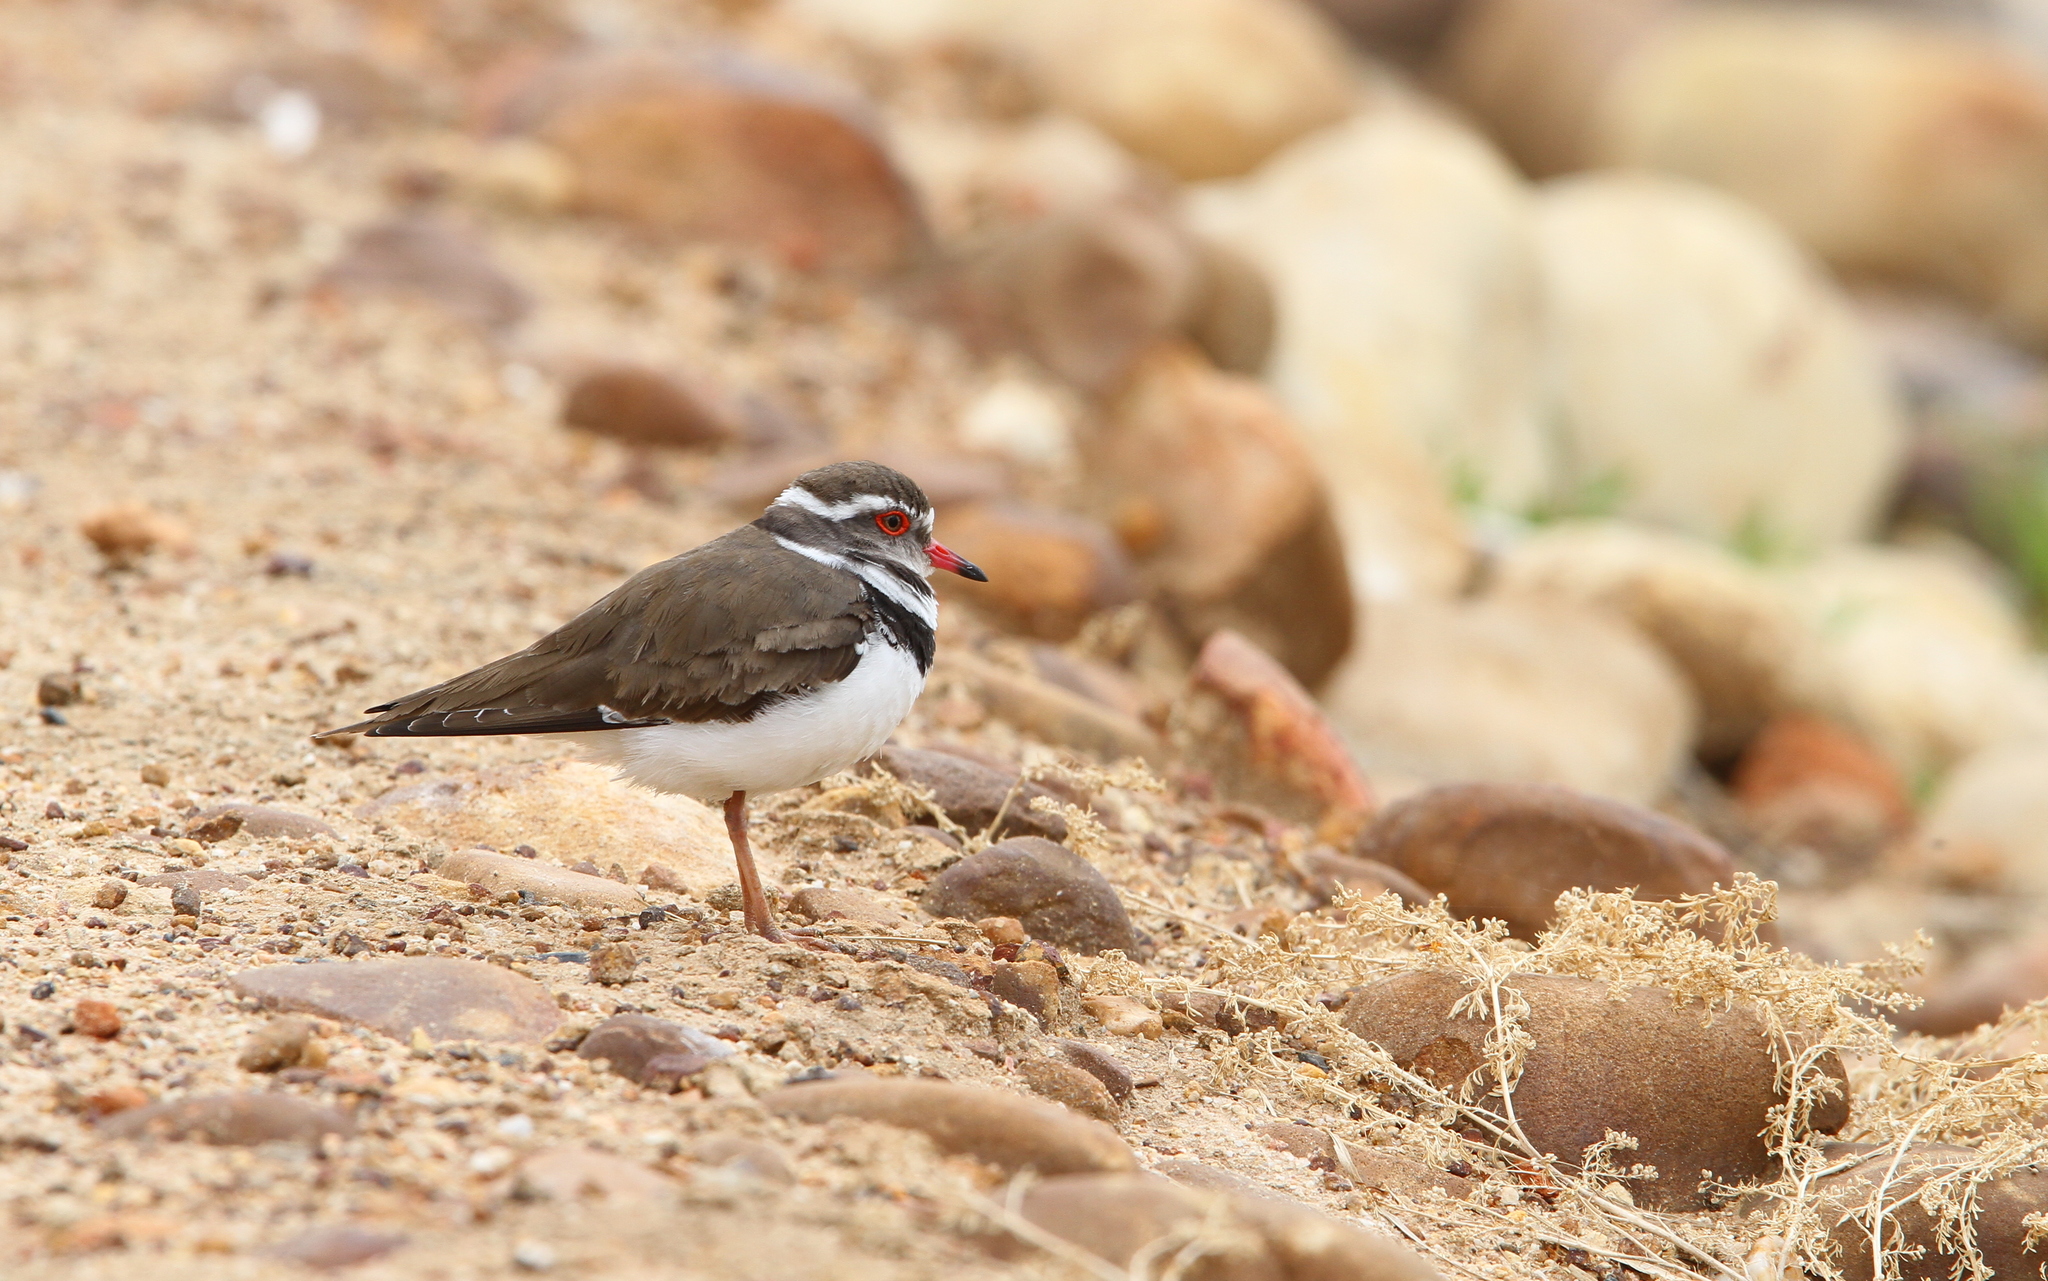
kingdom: Animalia
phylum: Chordata
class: Aves
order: Charadriiformes
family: Charadriidae
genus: Charadrius
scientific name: Charadrius tricollaris
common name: Three-banded plover
